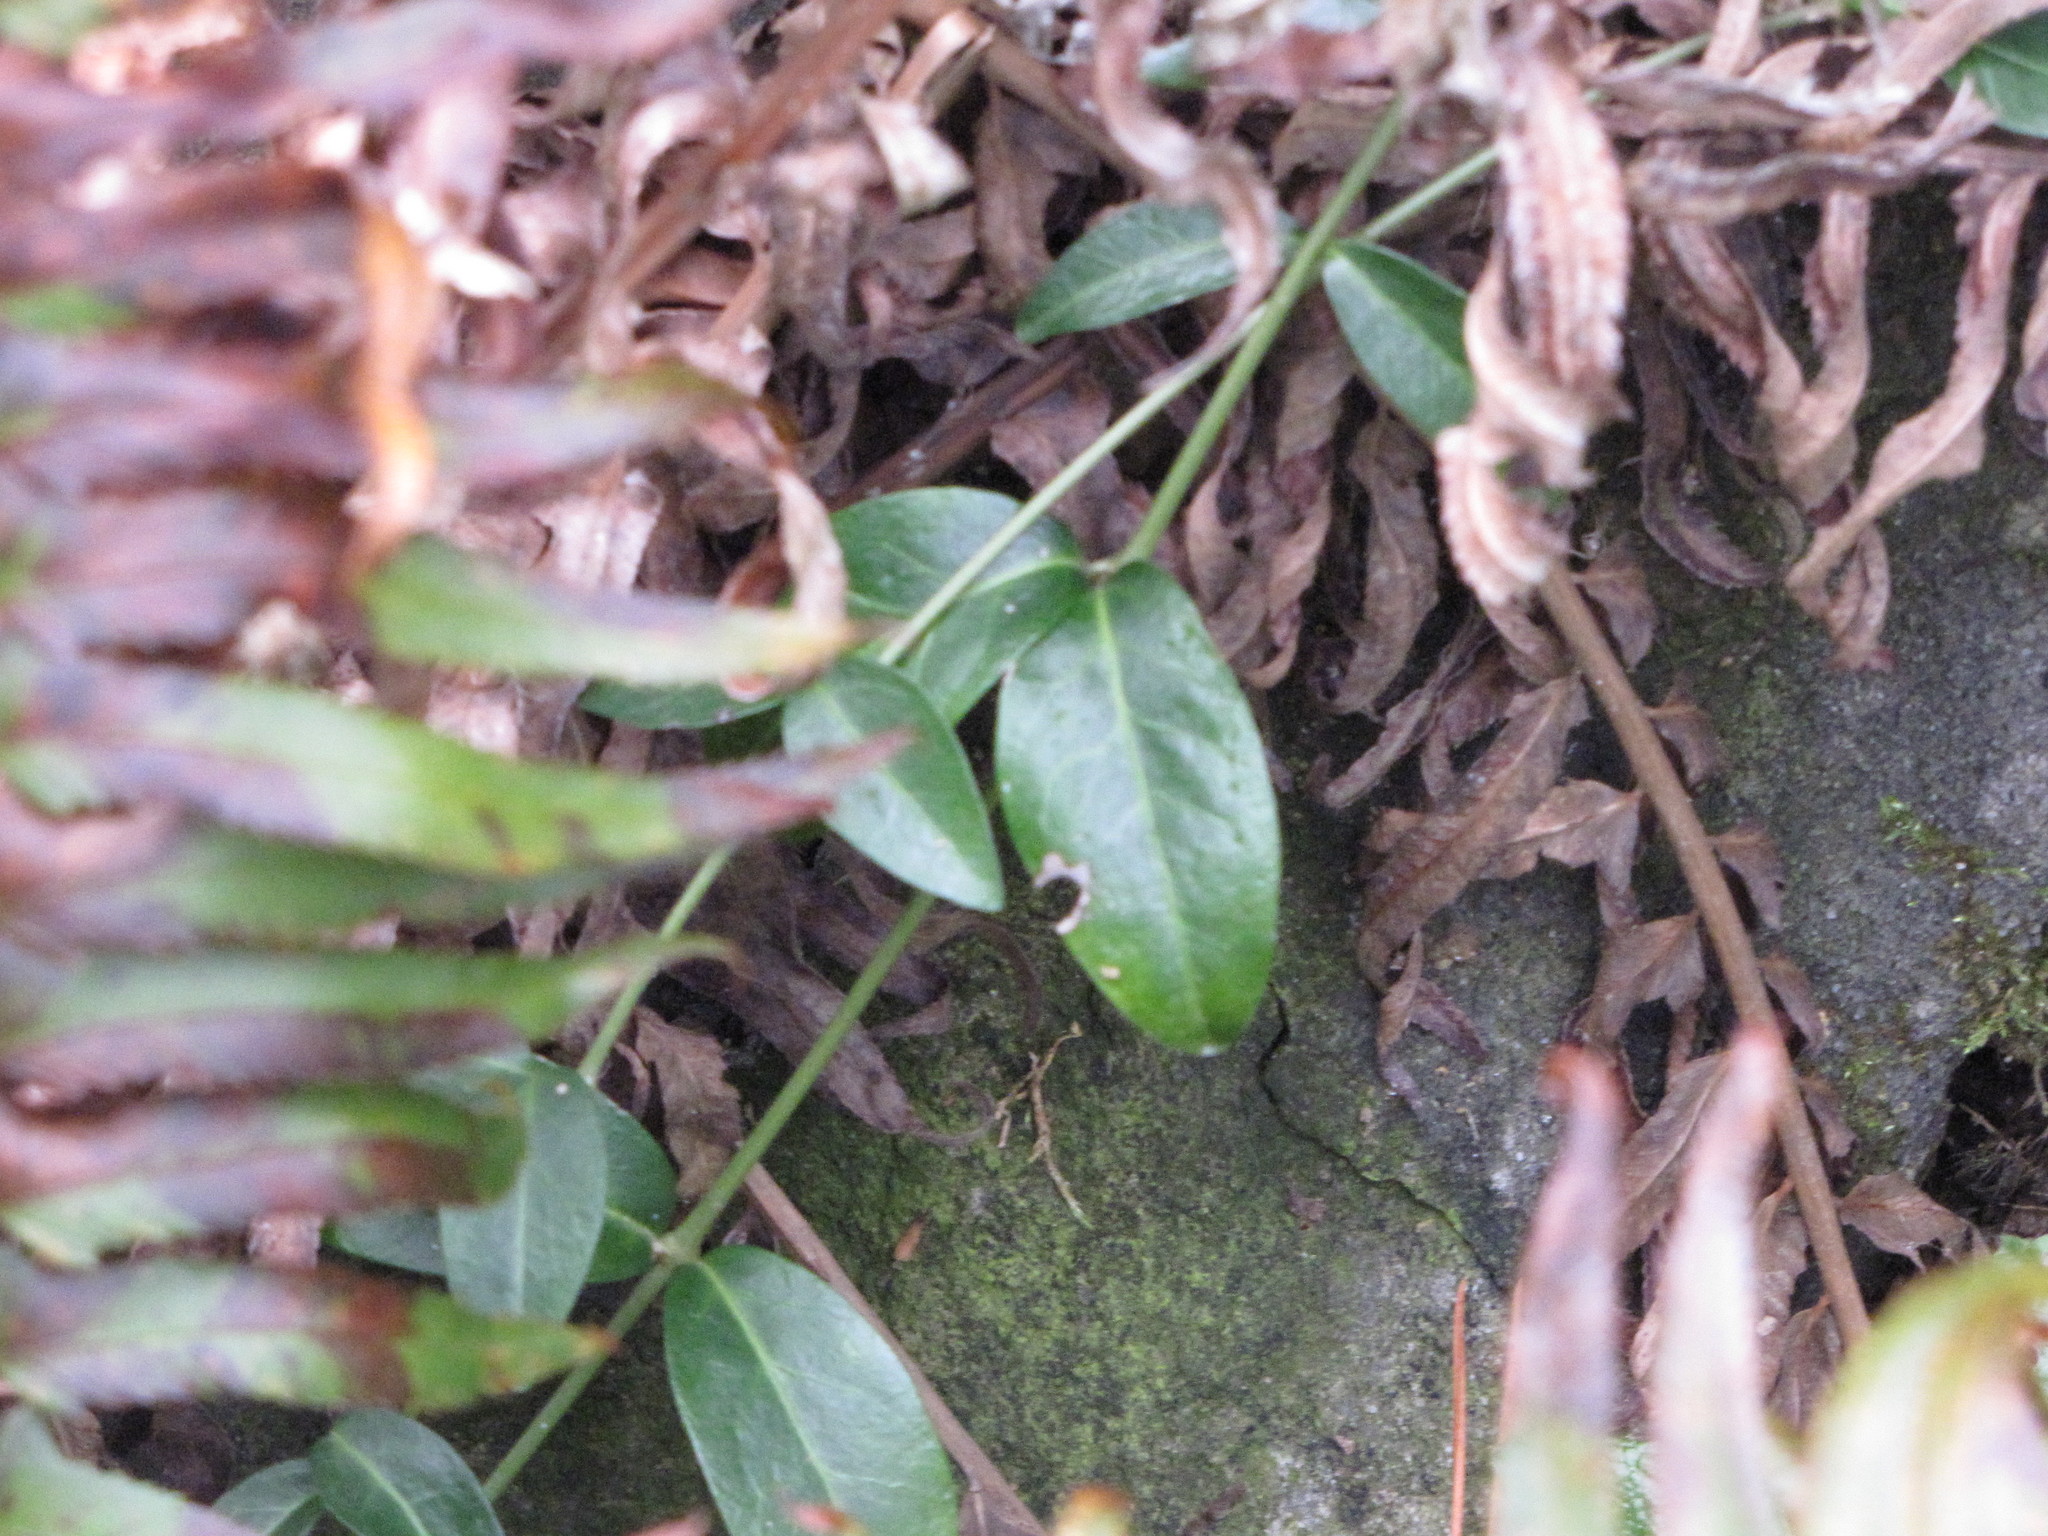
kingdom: Plantae
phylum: Tracheophyta
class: Magnoliopsida
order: Gentianales
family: Apocynaceae
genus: Vinca
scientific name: Vinca minor
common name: Lesser periwinkle
